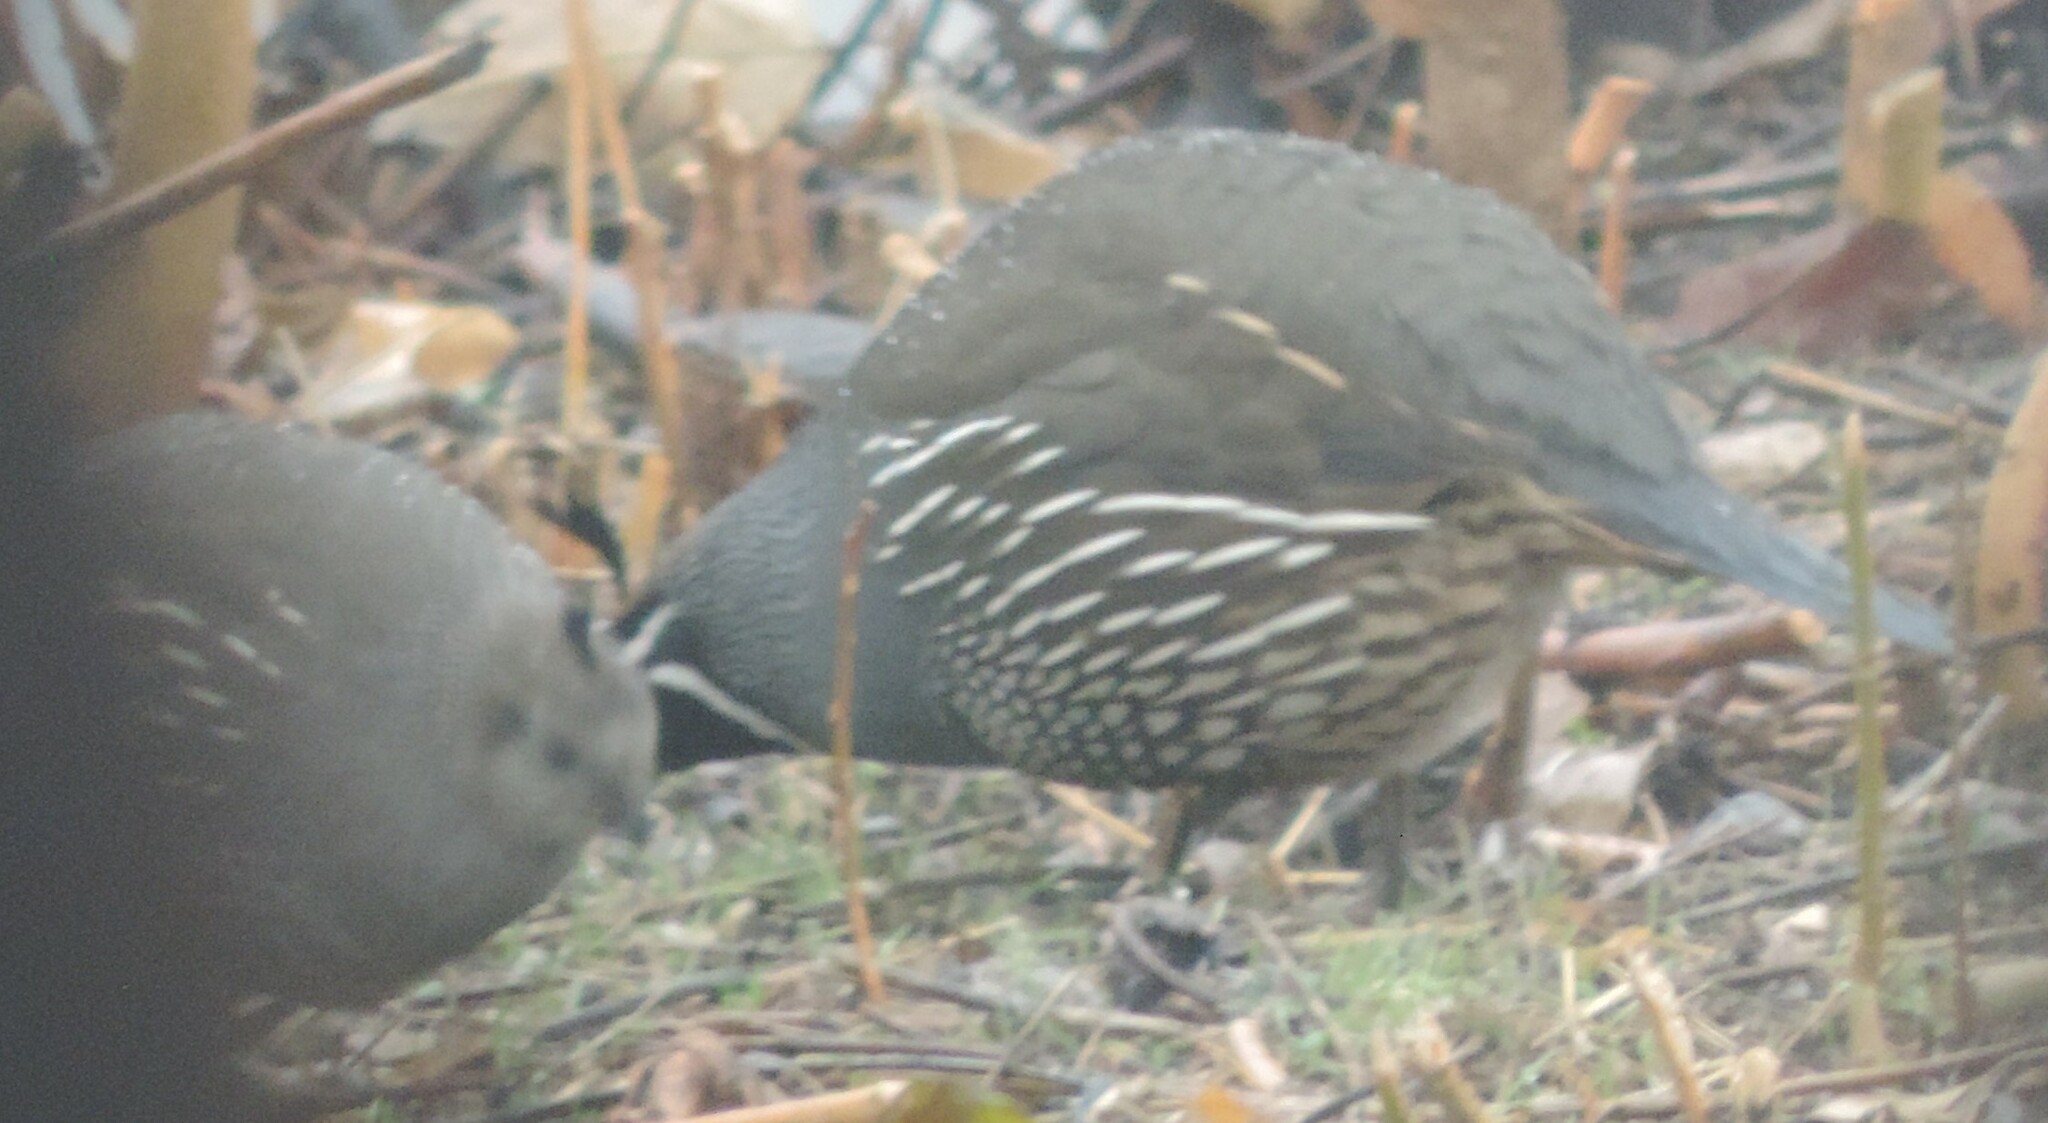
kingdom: Animalia
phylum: Chordata
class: Aves
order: Galliformes
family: Odontophoridae
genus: Callipepla
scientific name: Callipepla californica
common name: California quail
